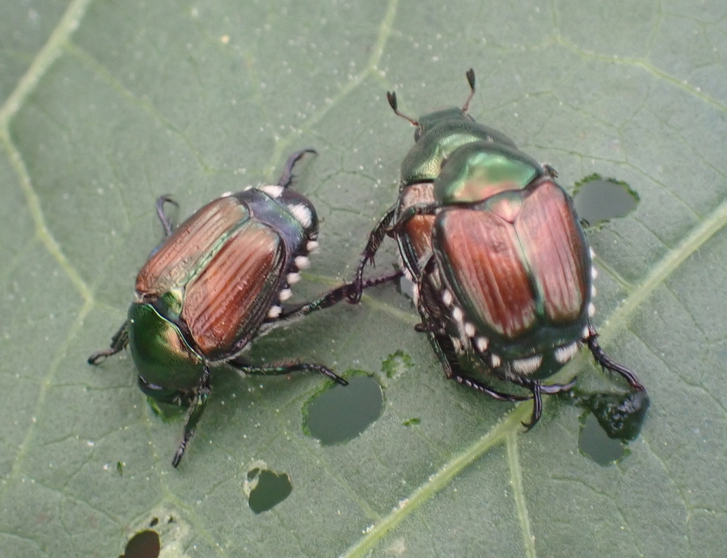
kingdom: Animalia
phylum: Arthropoda
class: Insecta
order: Coleoptera
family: Scarabaeidae
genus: Popillia
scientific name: Popillia japonica
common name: Japanese beetle
